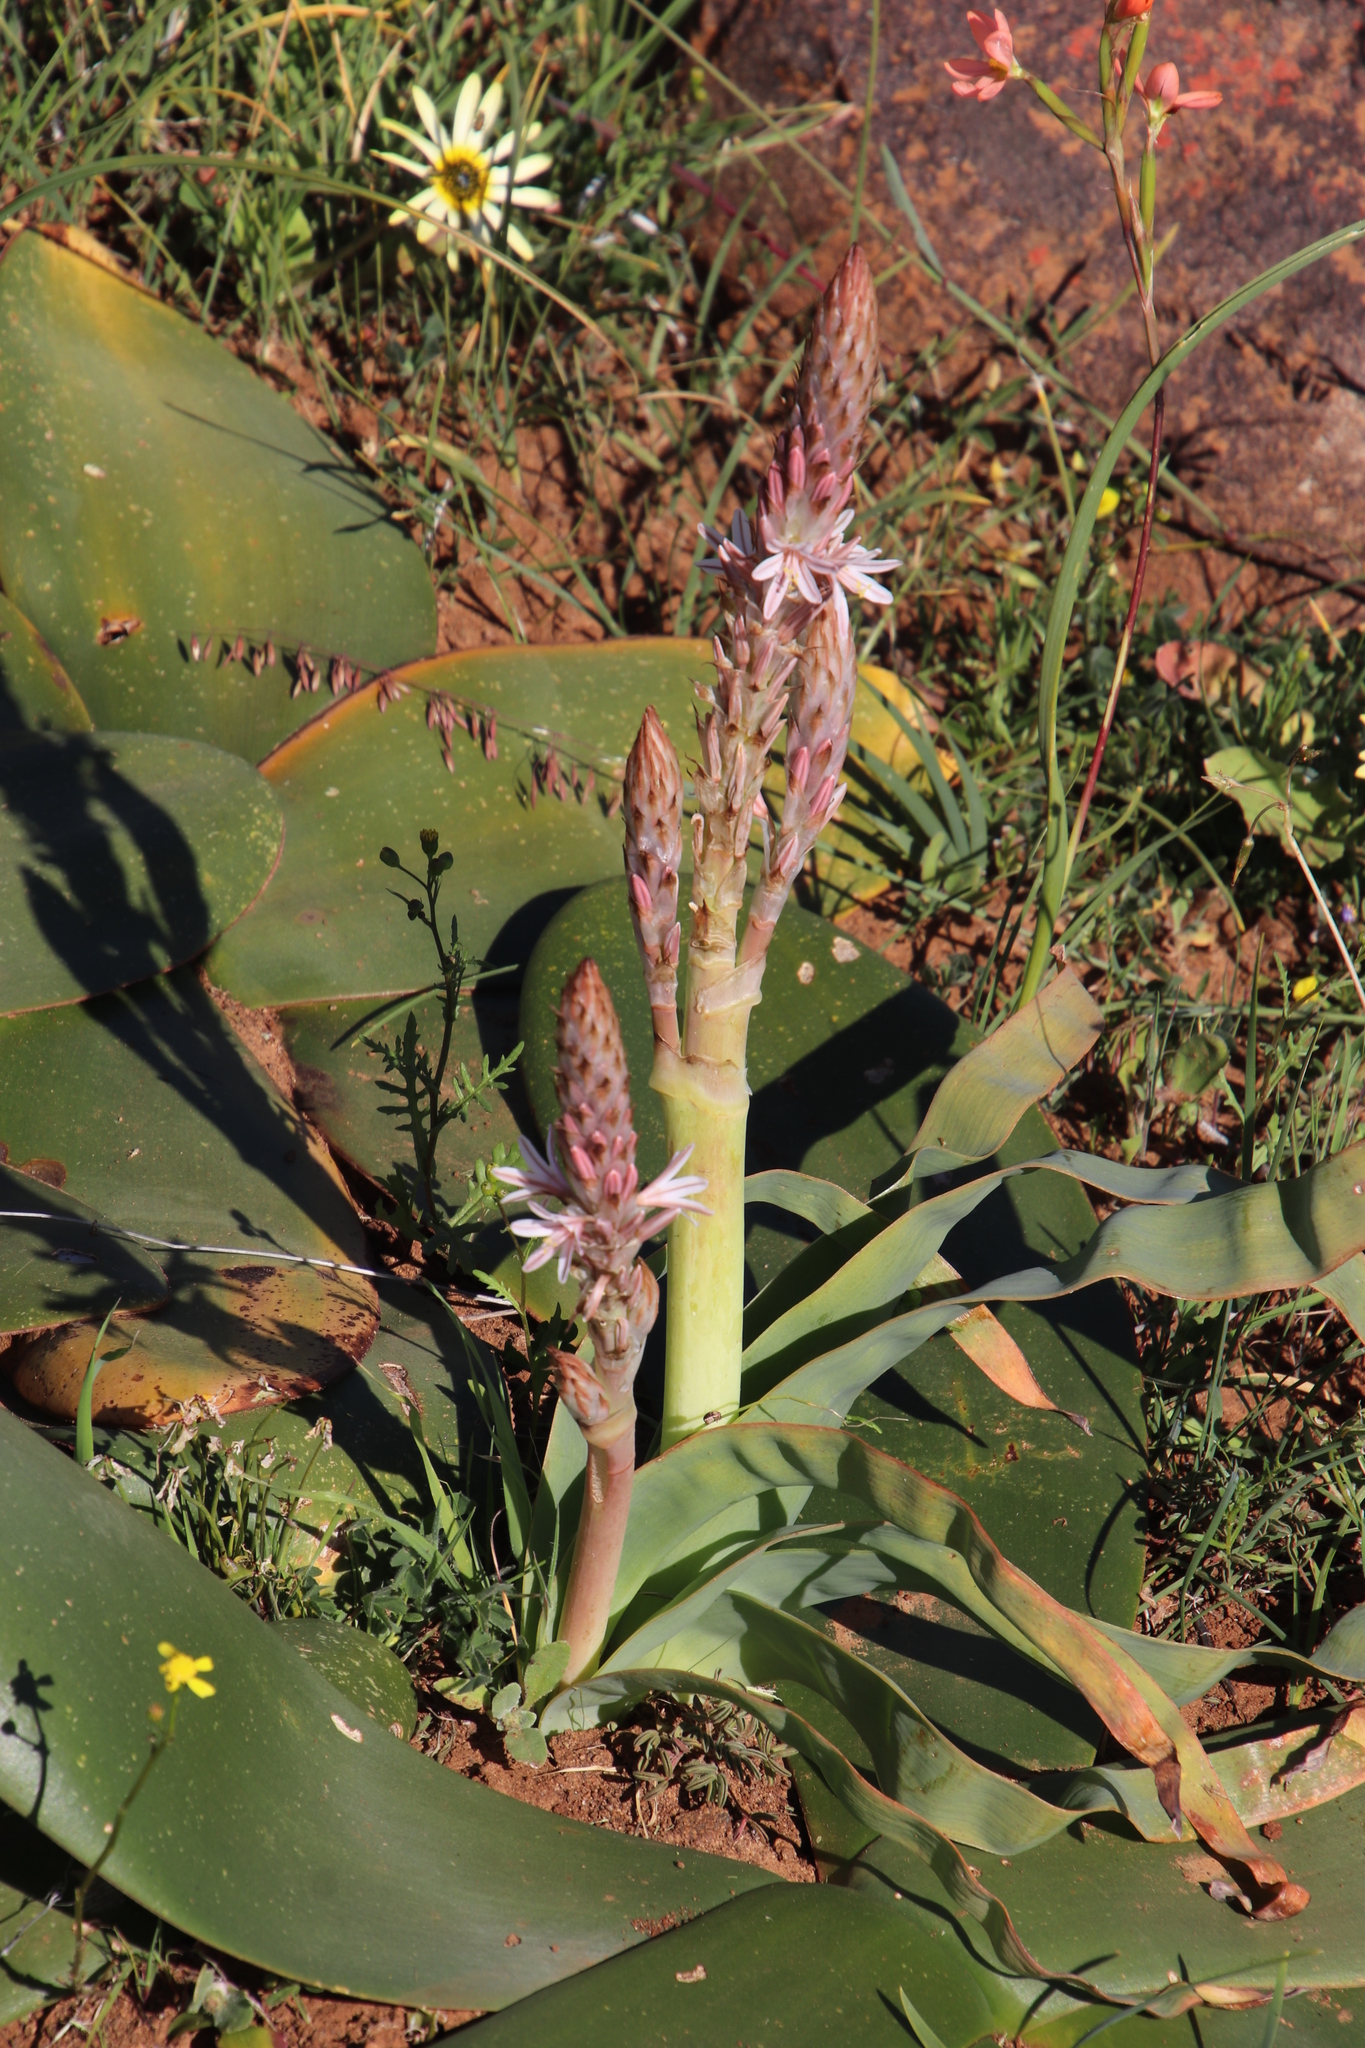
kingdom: Plantae
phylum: Tracheophyta
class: Liliopsida
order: Asparagales
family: Asphodelaceae
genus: Trachyandra
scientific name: Trachyandra falcata
